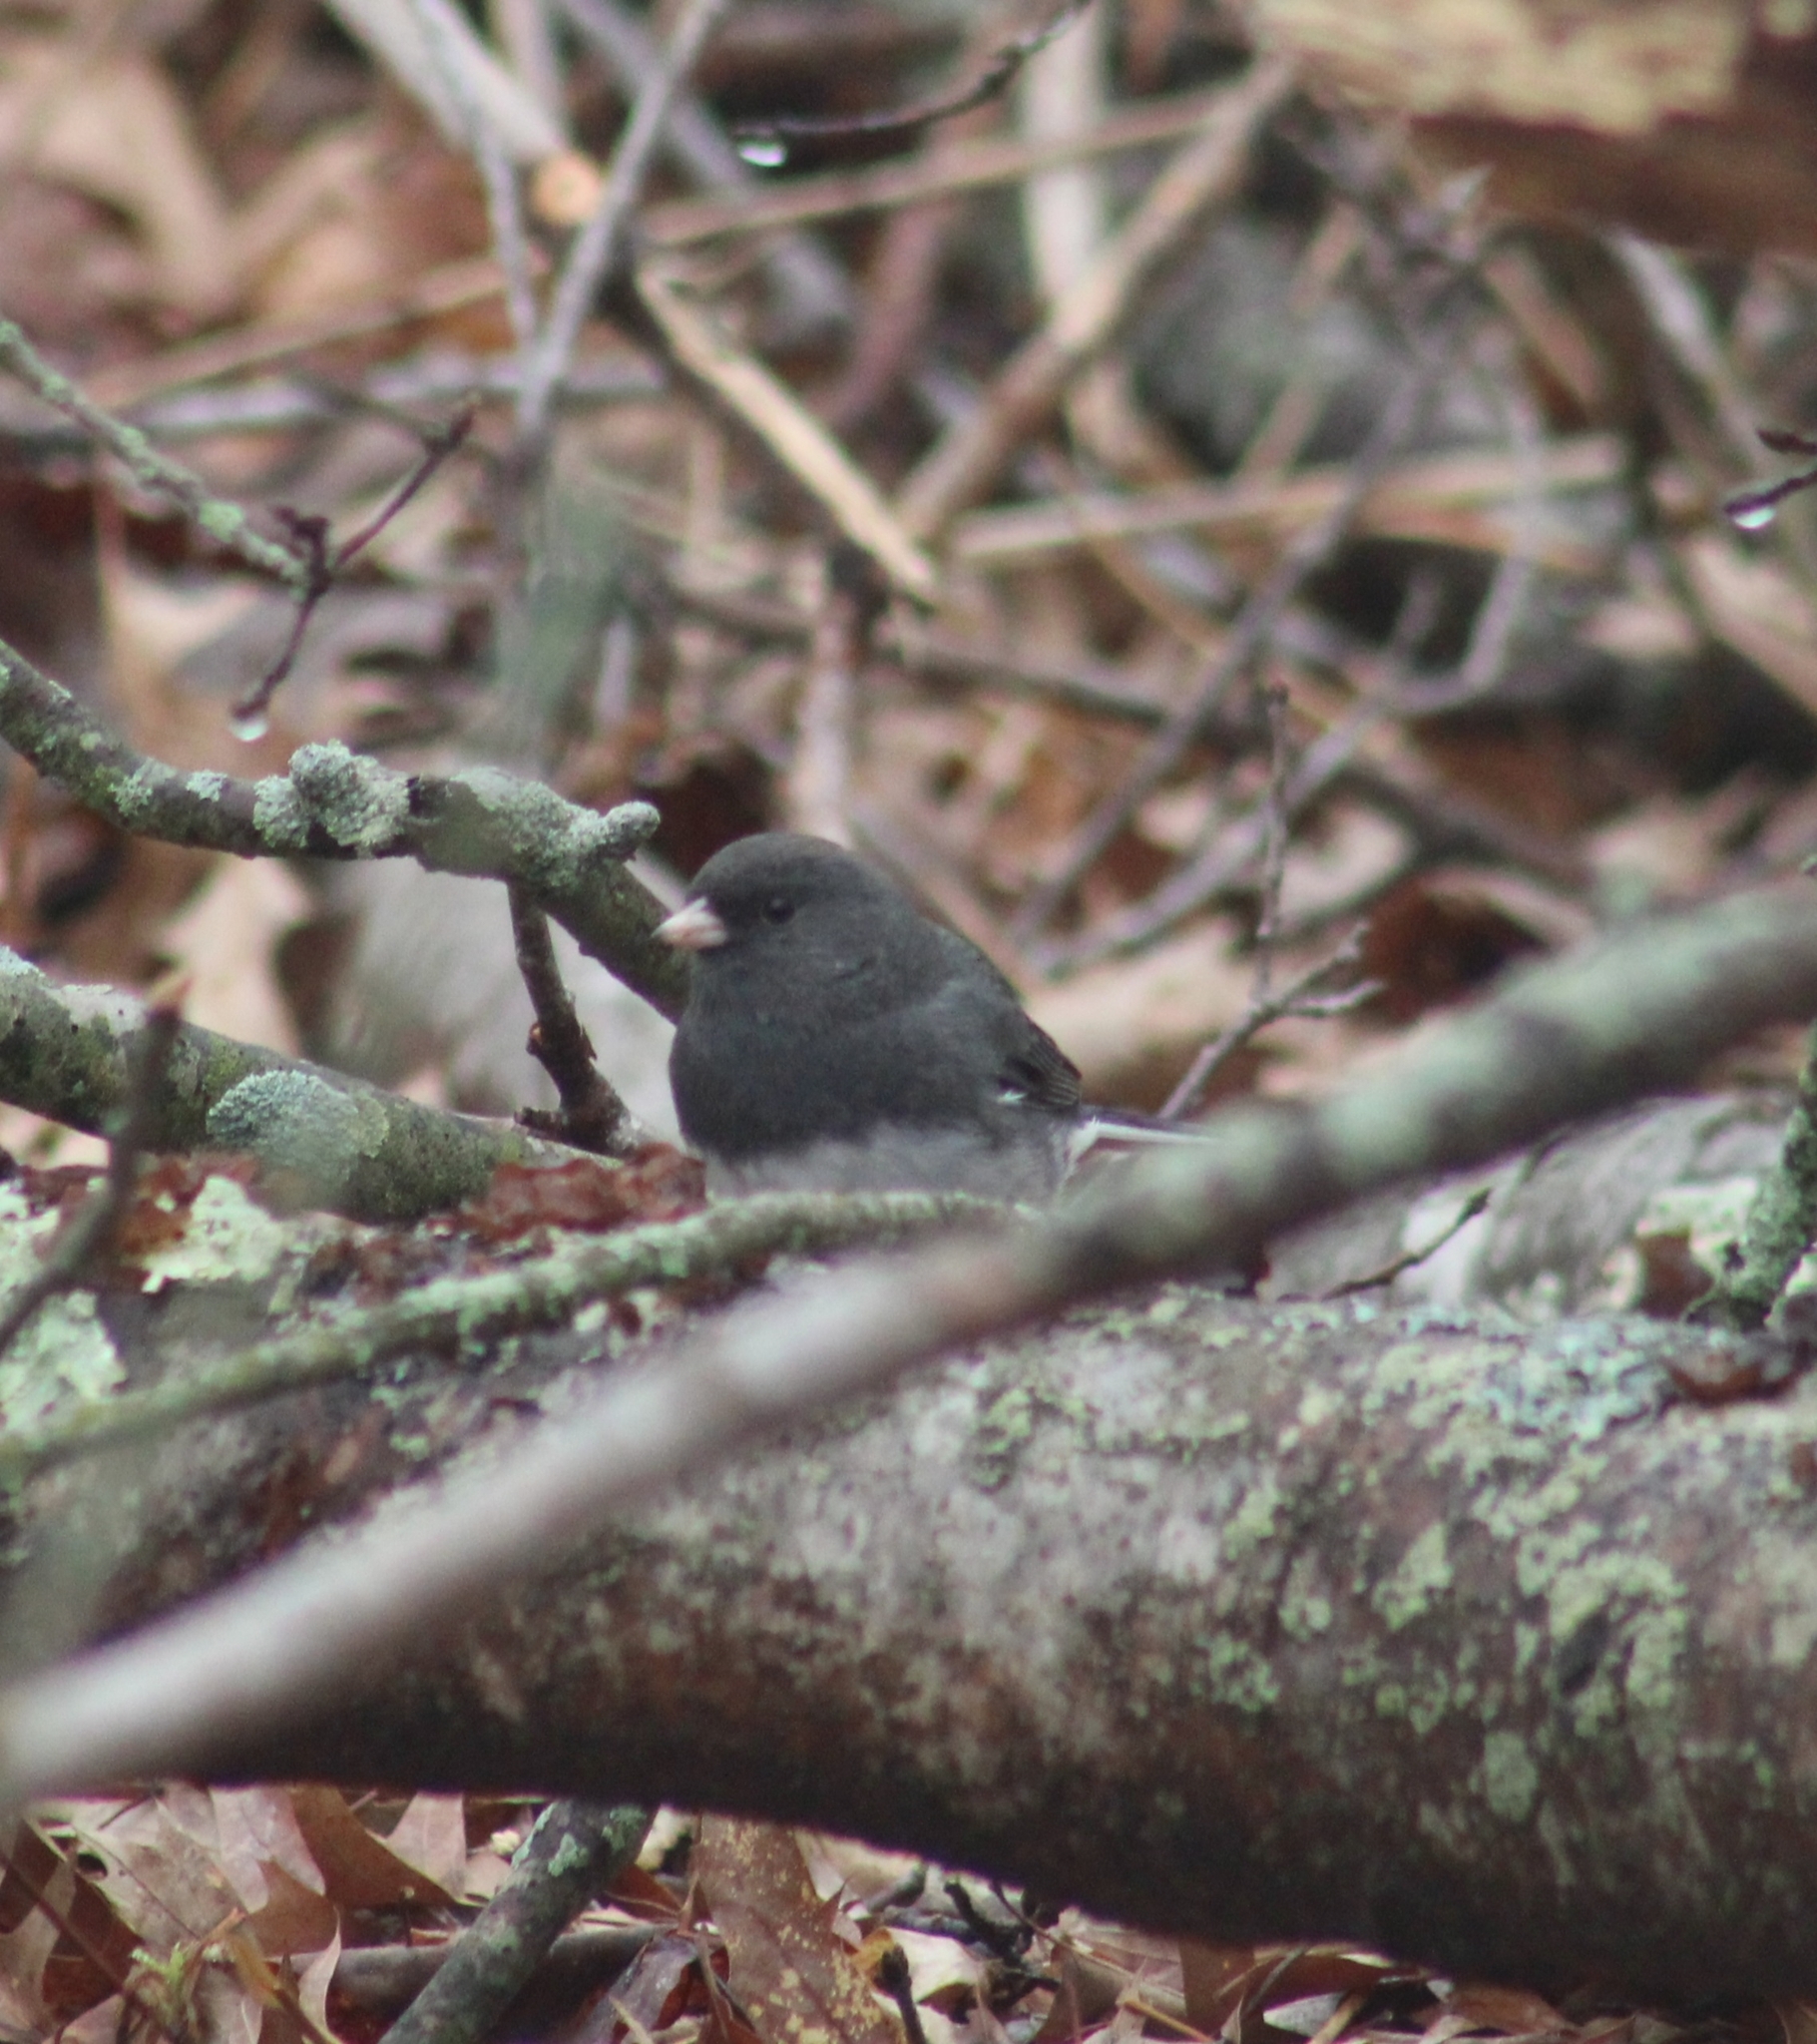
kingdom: Animalia
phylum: Chordata
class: Aves
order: Passeriformes
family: Passerellidae
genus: Junco
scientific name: Junco hyemalis
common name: Dark-eyed junco
